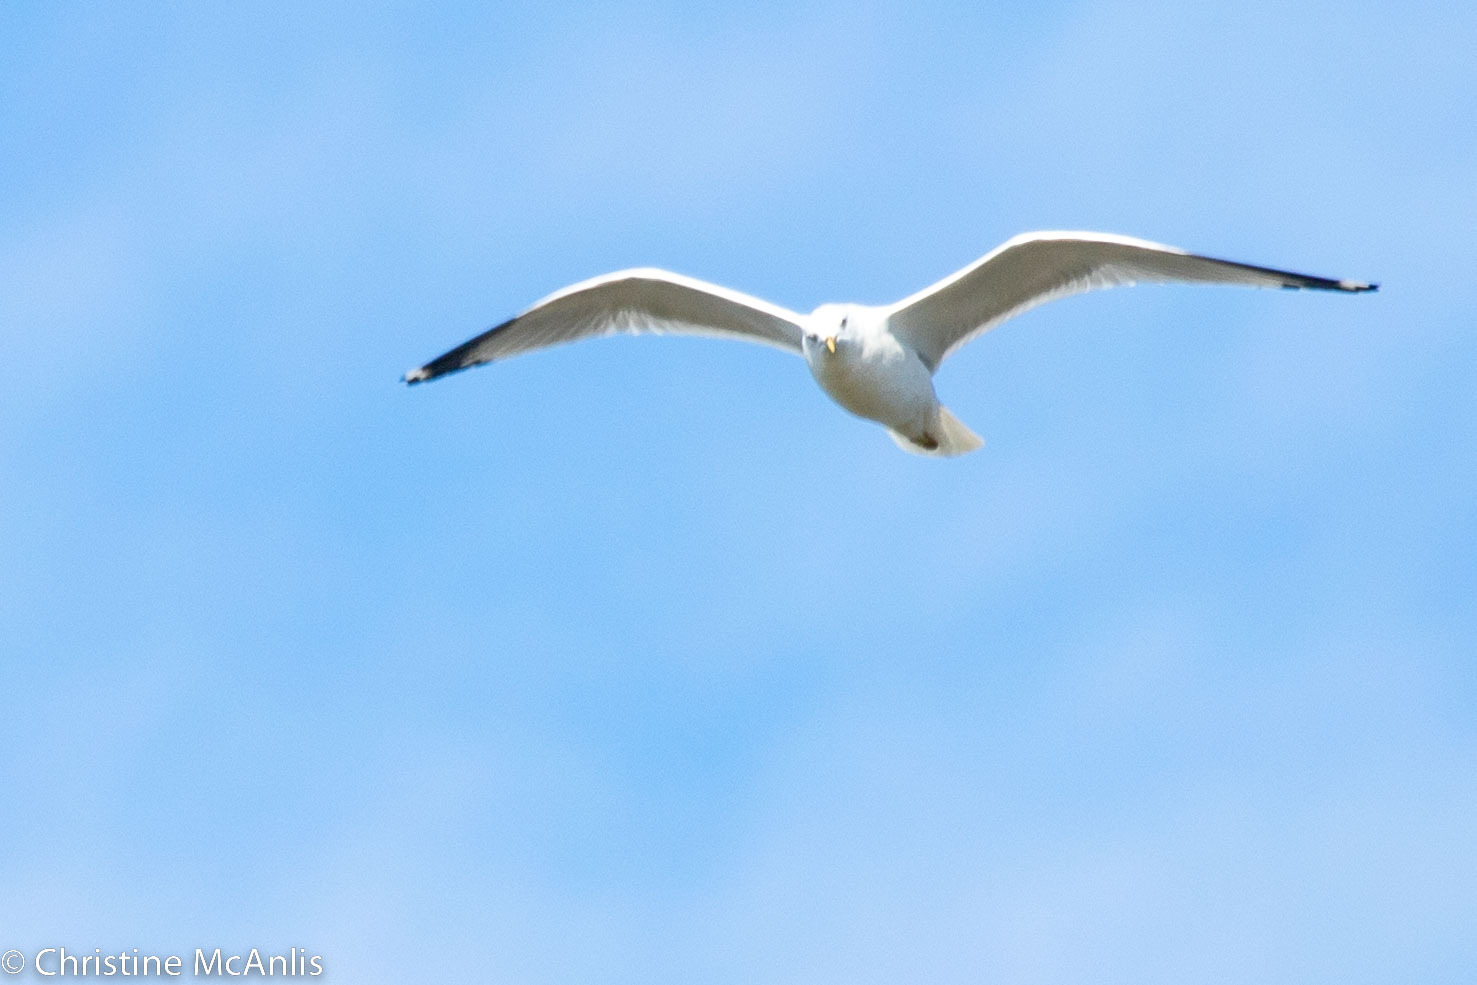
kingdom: Animalia
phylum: Chordata
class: Aves
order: Charadriiformes
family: Laridae
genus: Larus
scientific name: Larus delawarensis
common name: Ring-billed gull
